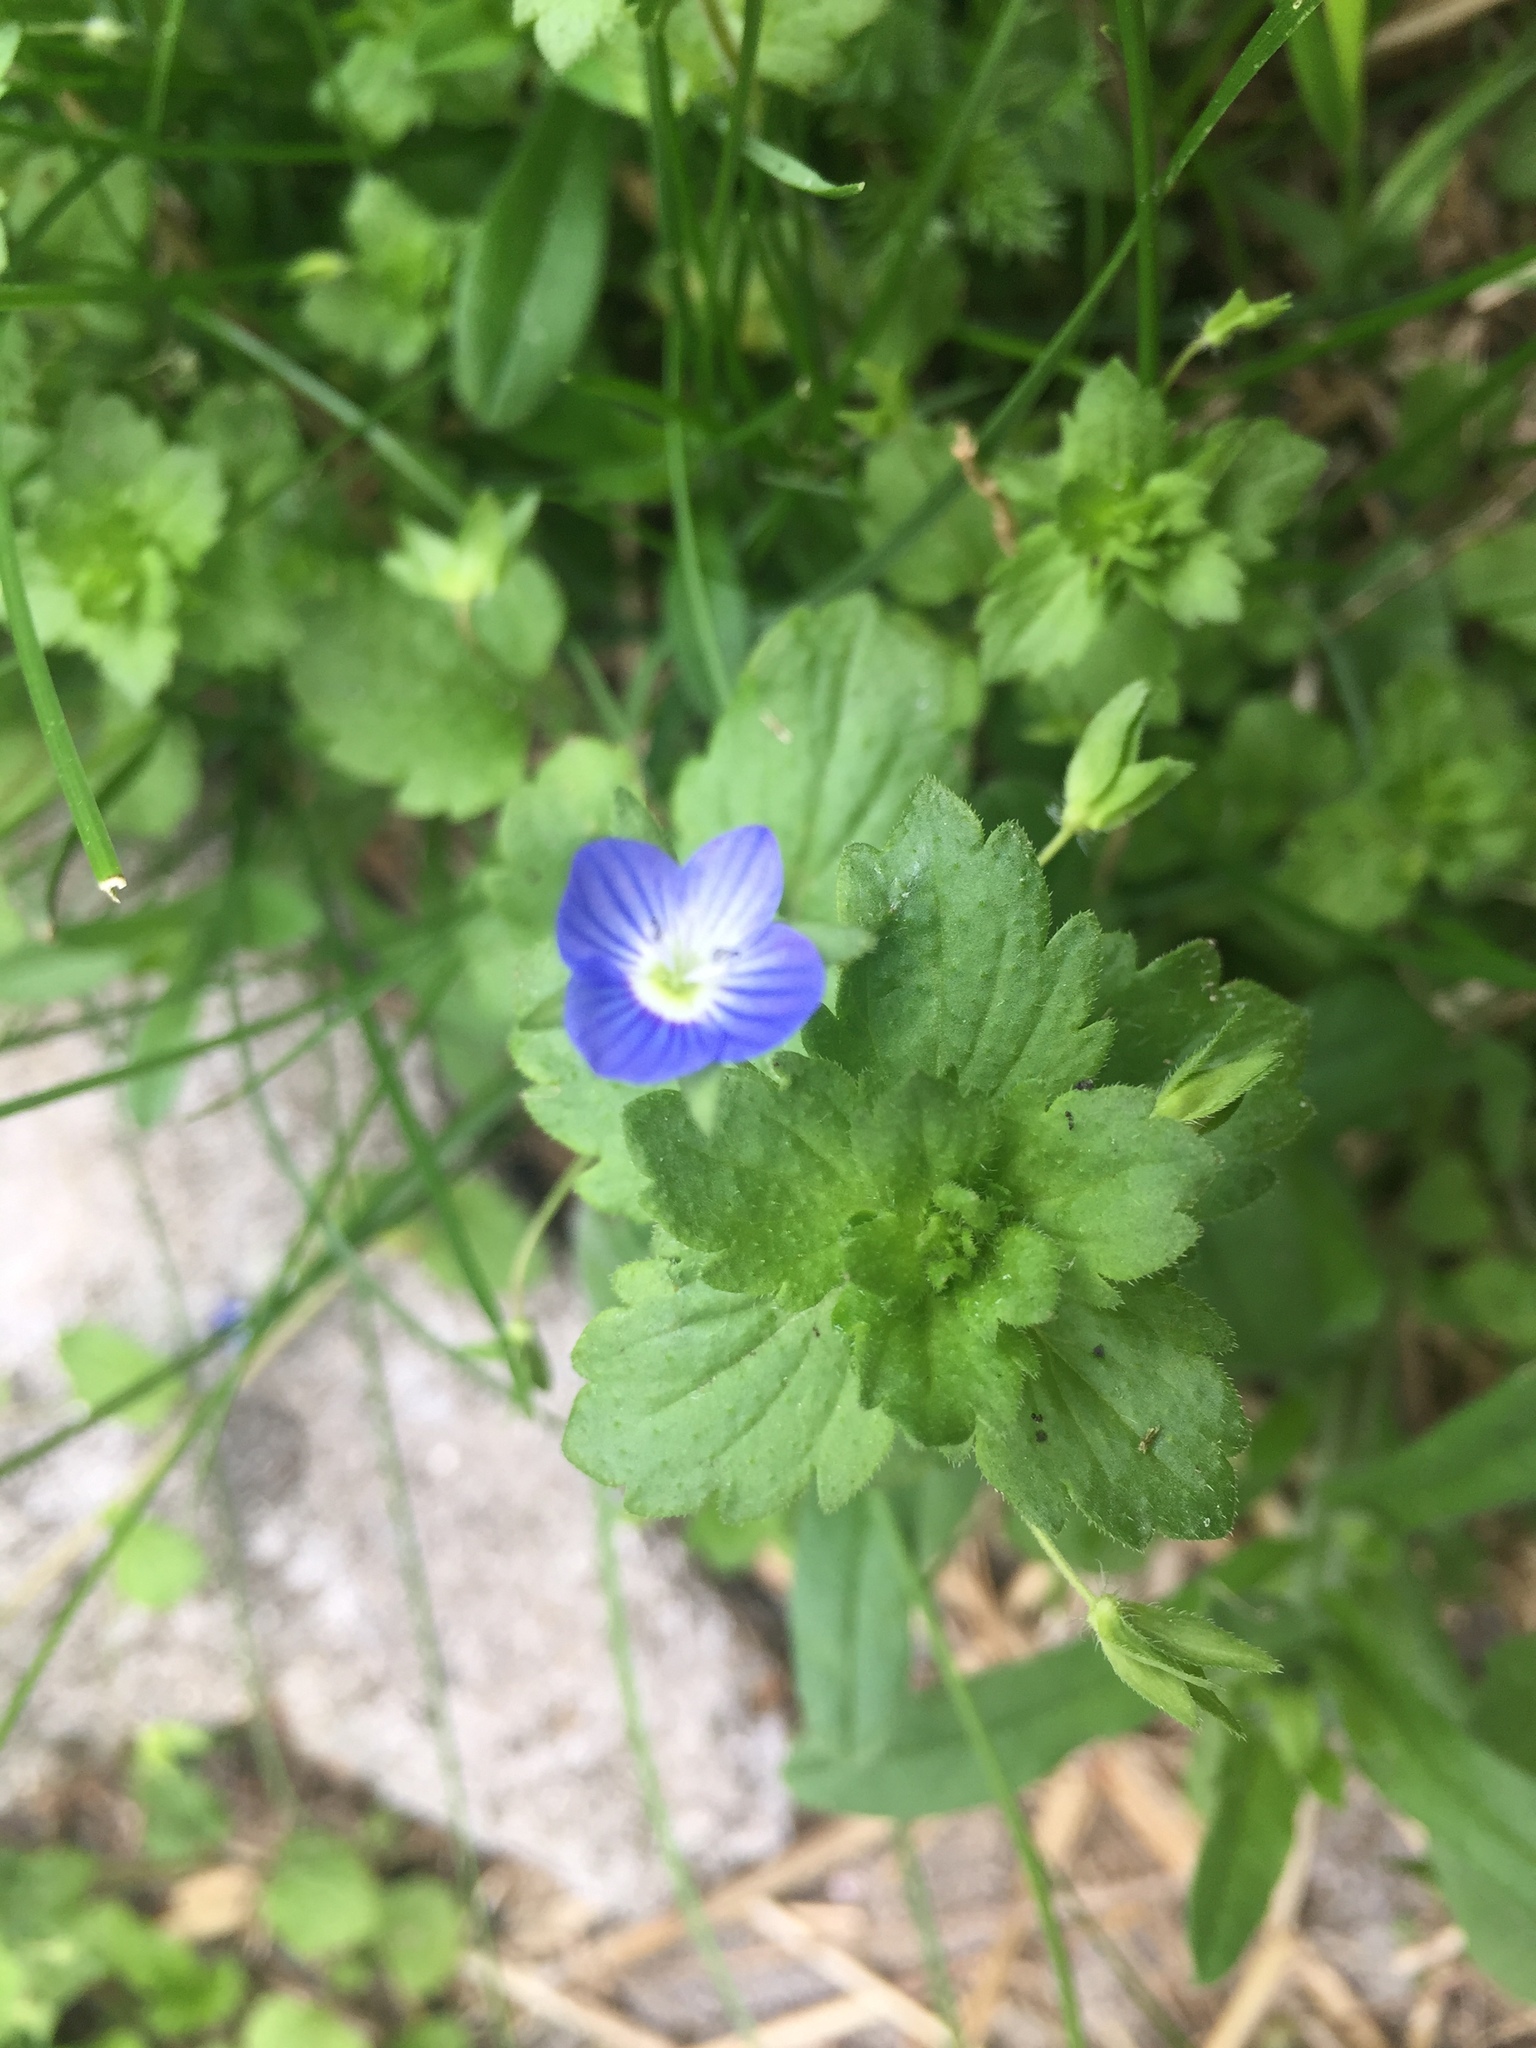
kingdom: Plantae
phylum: Tracheophyta
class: Magnoliopsida
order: Lamiales
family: Plantaginaceae
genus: Veronica
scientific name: Veronica persica
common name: Common field-speedwell
